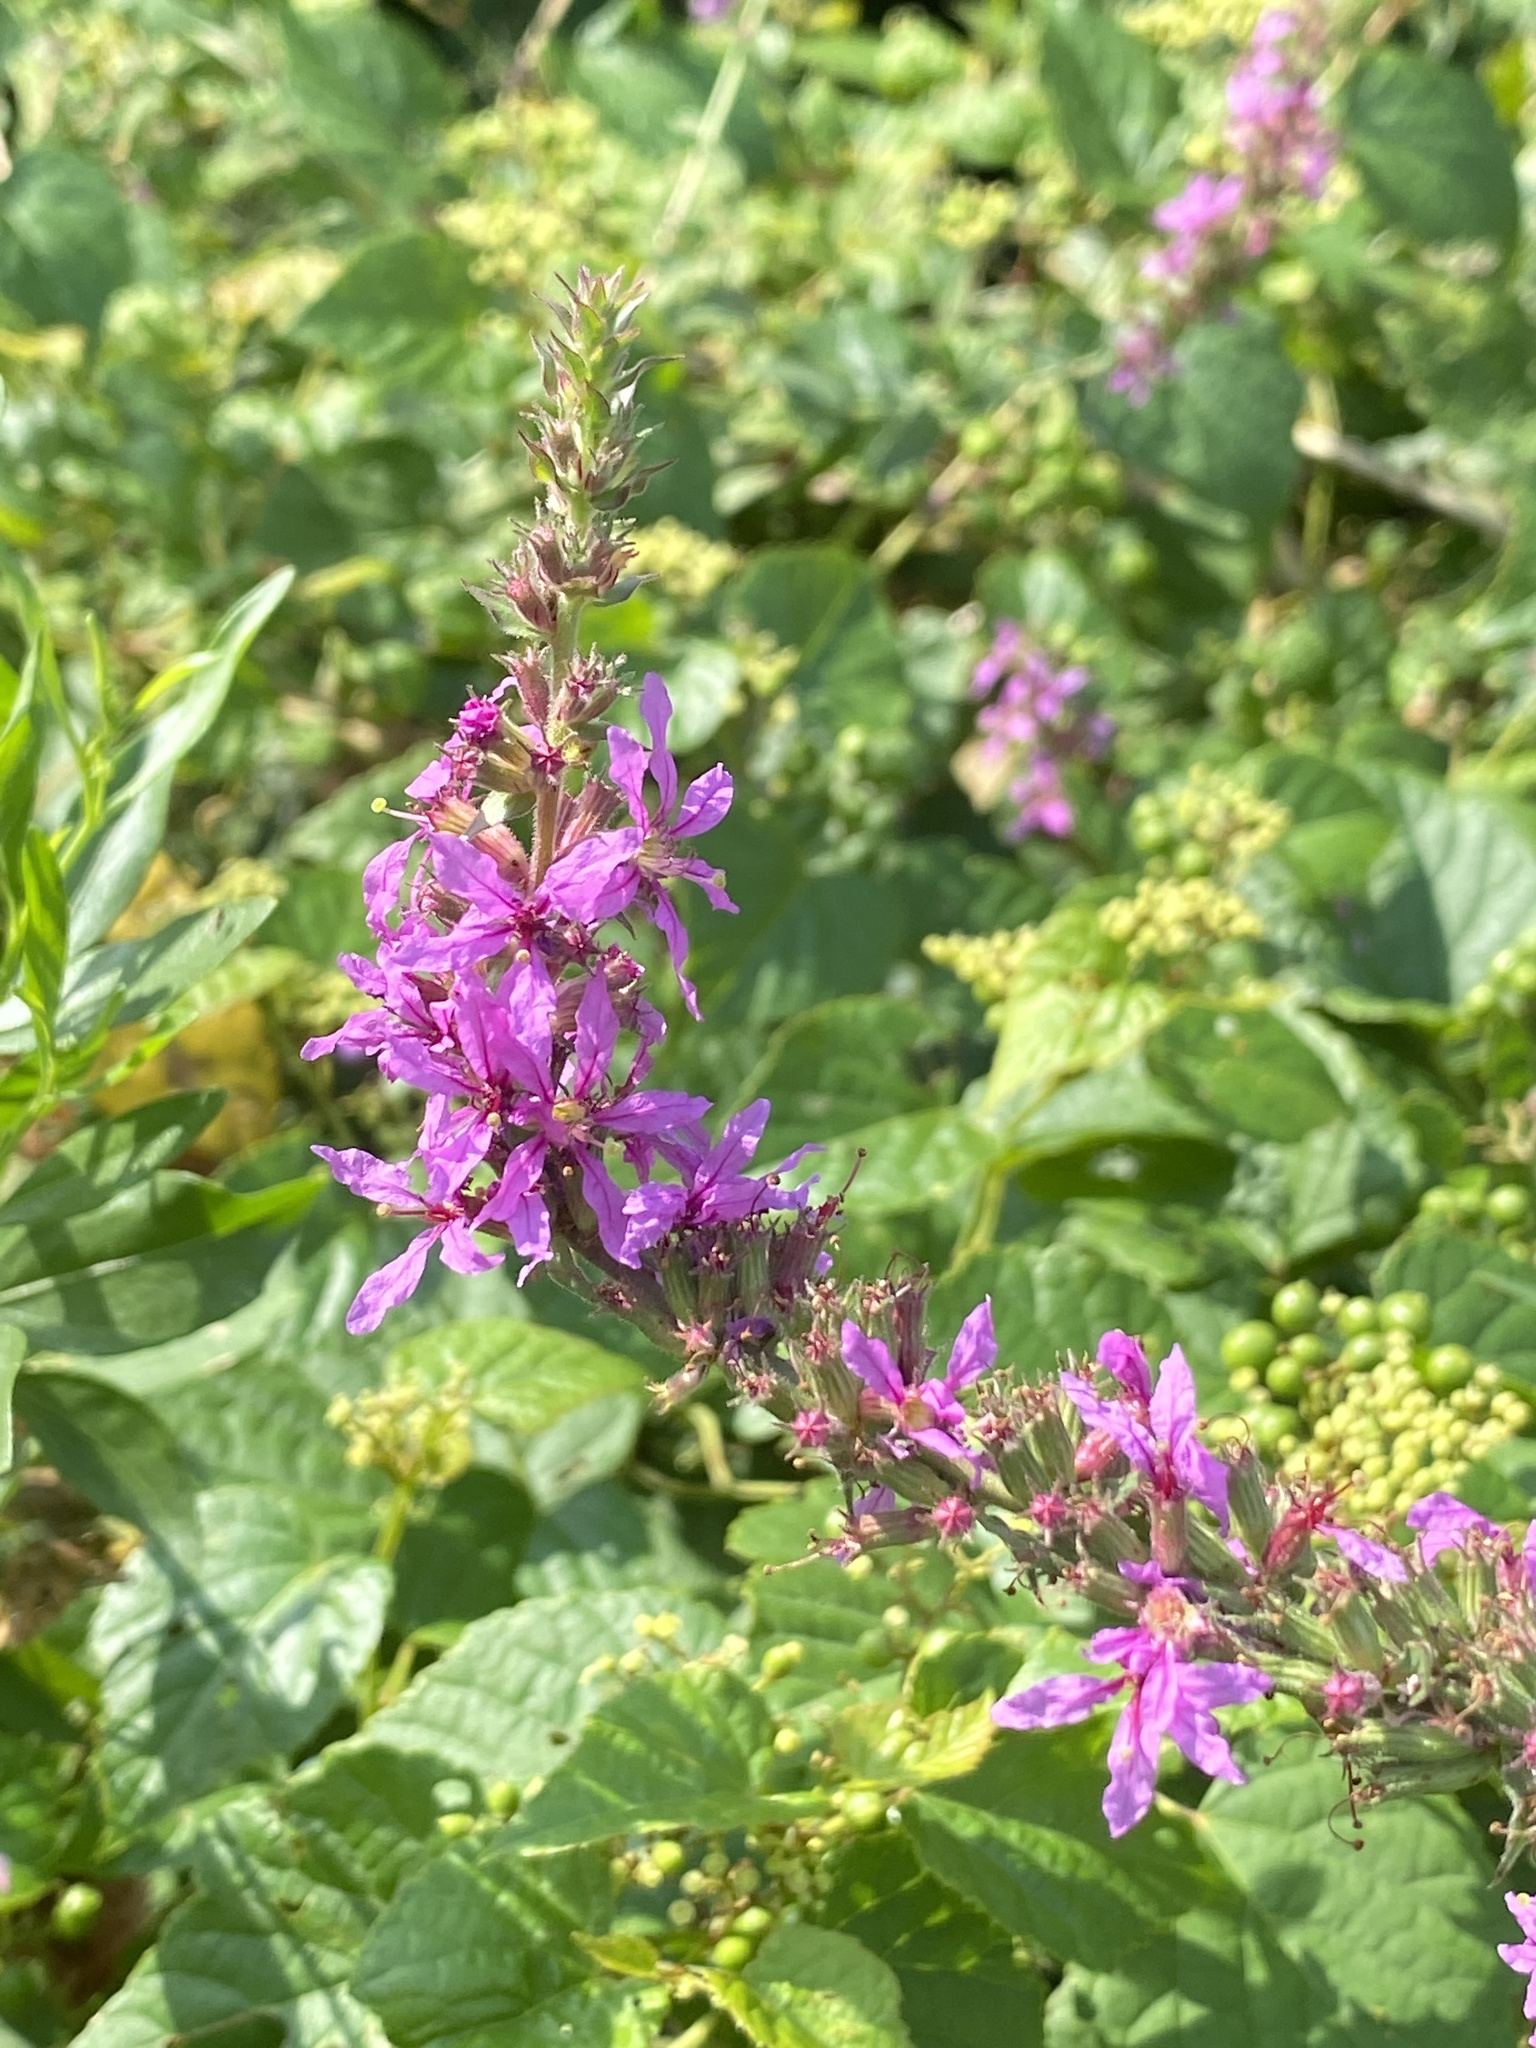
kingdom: Plantae
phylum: Tracheophyta
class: Magnoliopsida
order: Myrtales
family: Lythraceae
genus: Lythrum
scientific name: Lythrum salicaria
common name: Purple loosestrife
